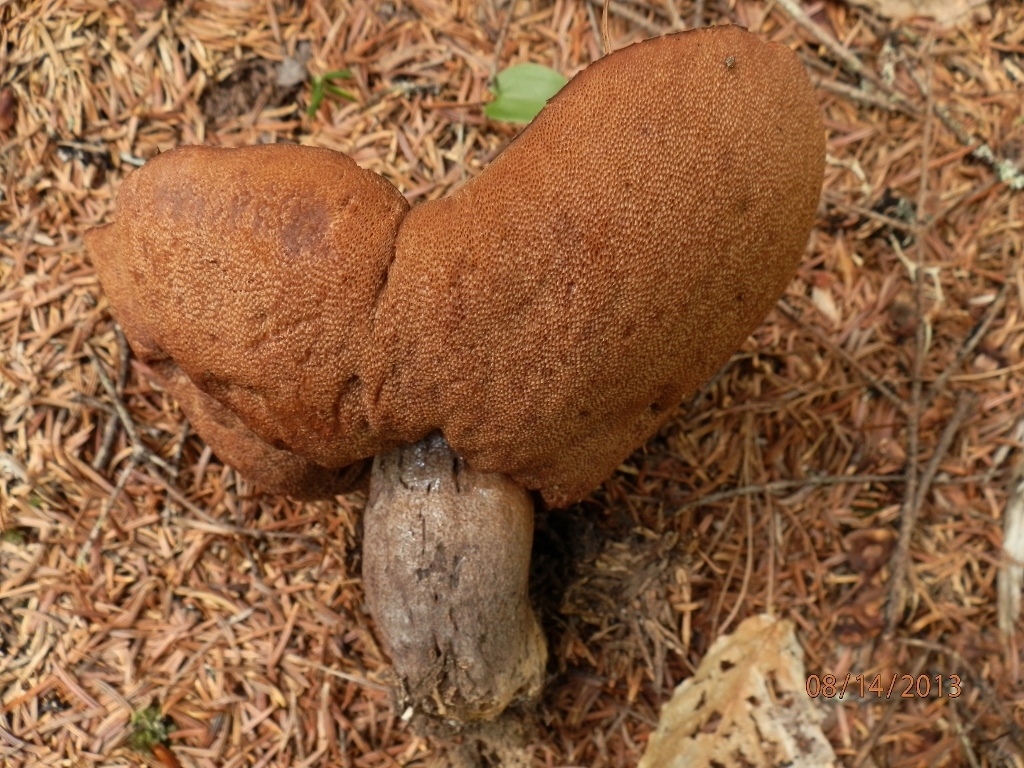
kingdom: Fungi
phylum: Basidiomycota
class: Agaricomycetes
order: Boletales
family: Boletaceae
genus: Sutorius
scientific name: Sutorius eximius
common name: Lilac-brown bolete
